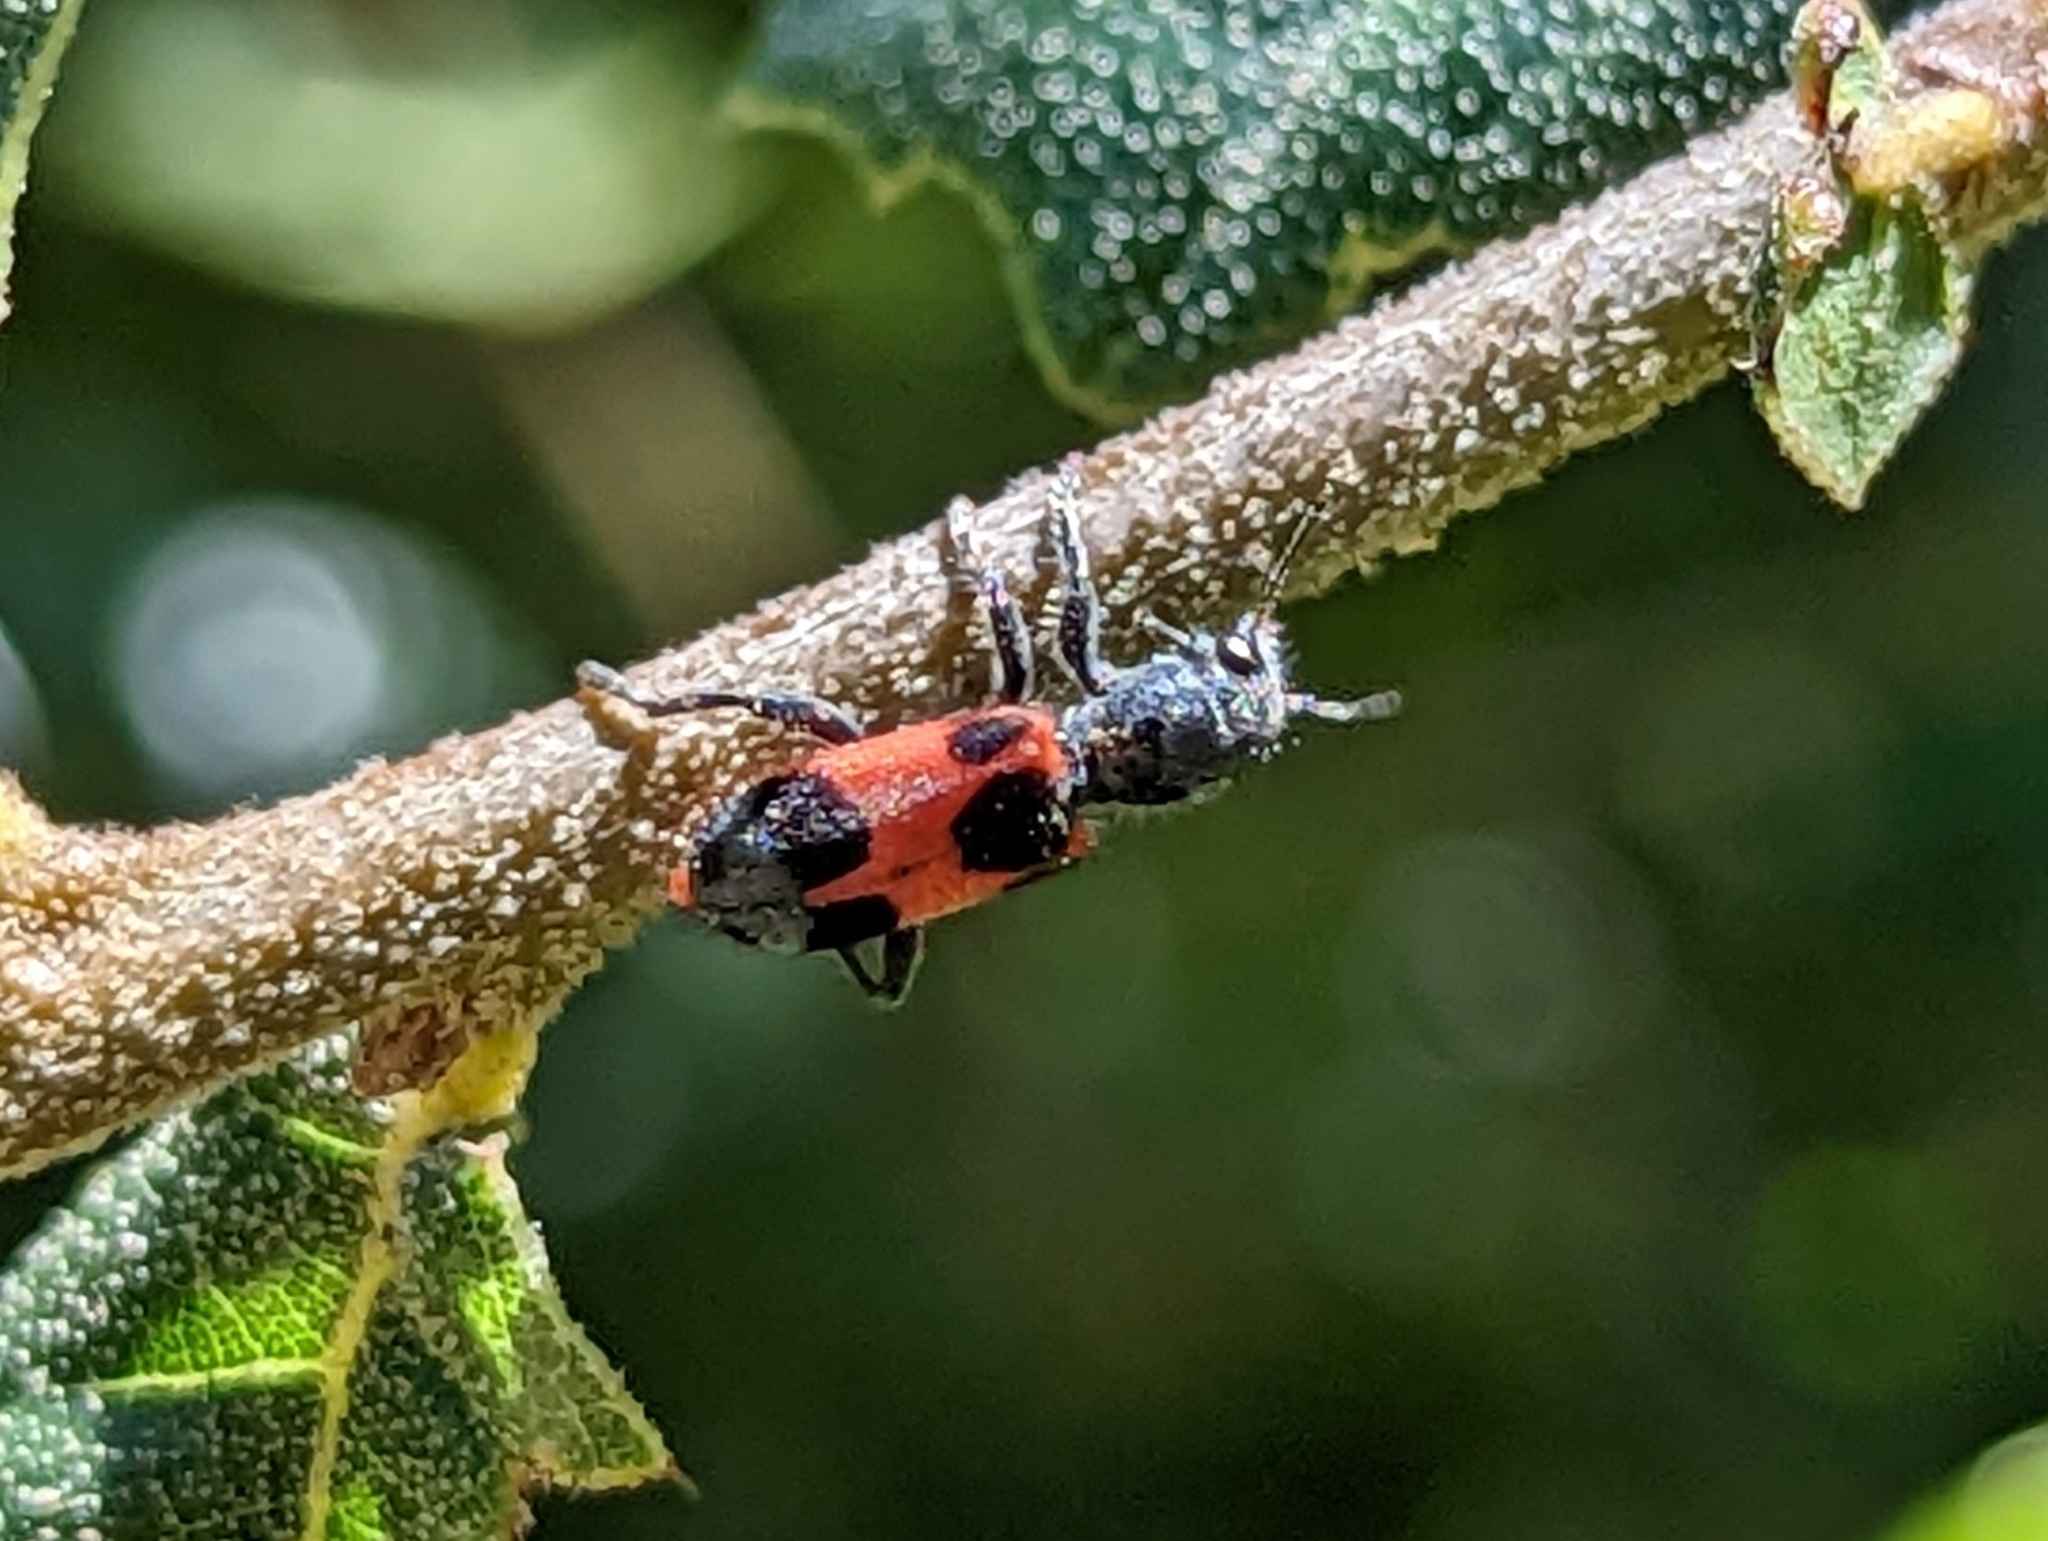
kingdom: Animalia
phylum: Arthropoda
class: Insecta
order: Coleoptera
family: Cleridae
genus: Enoclerus
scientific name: Enoclerus eximius
